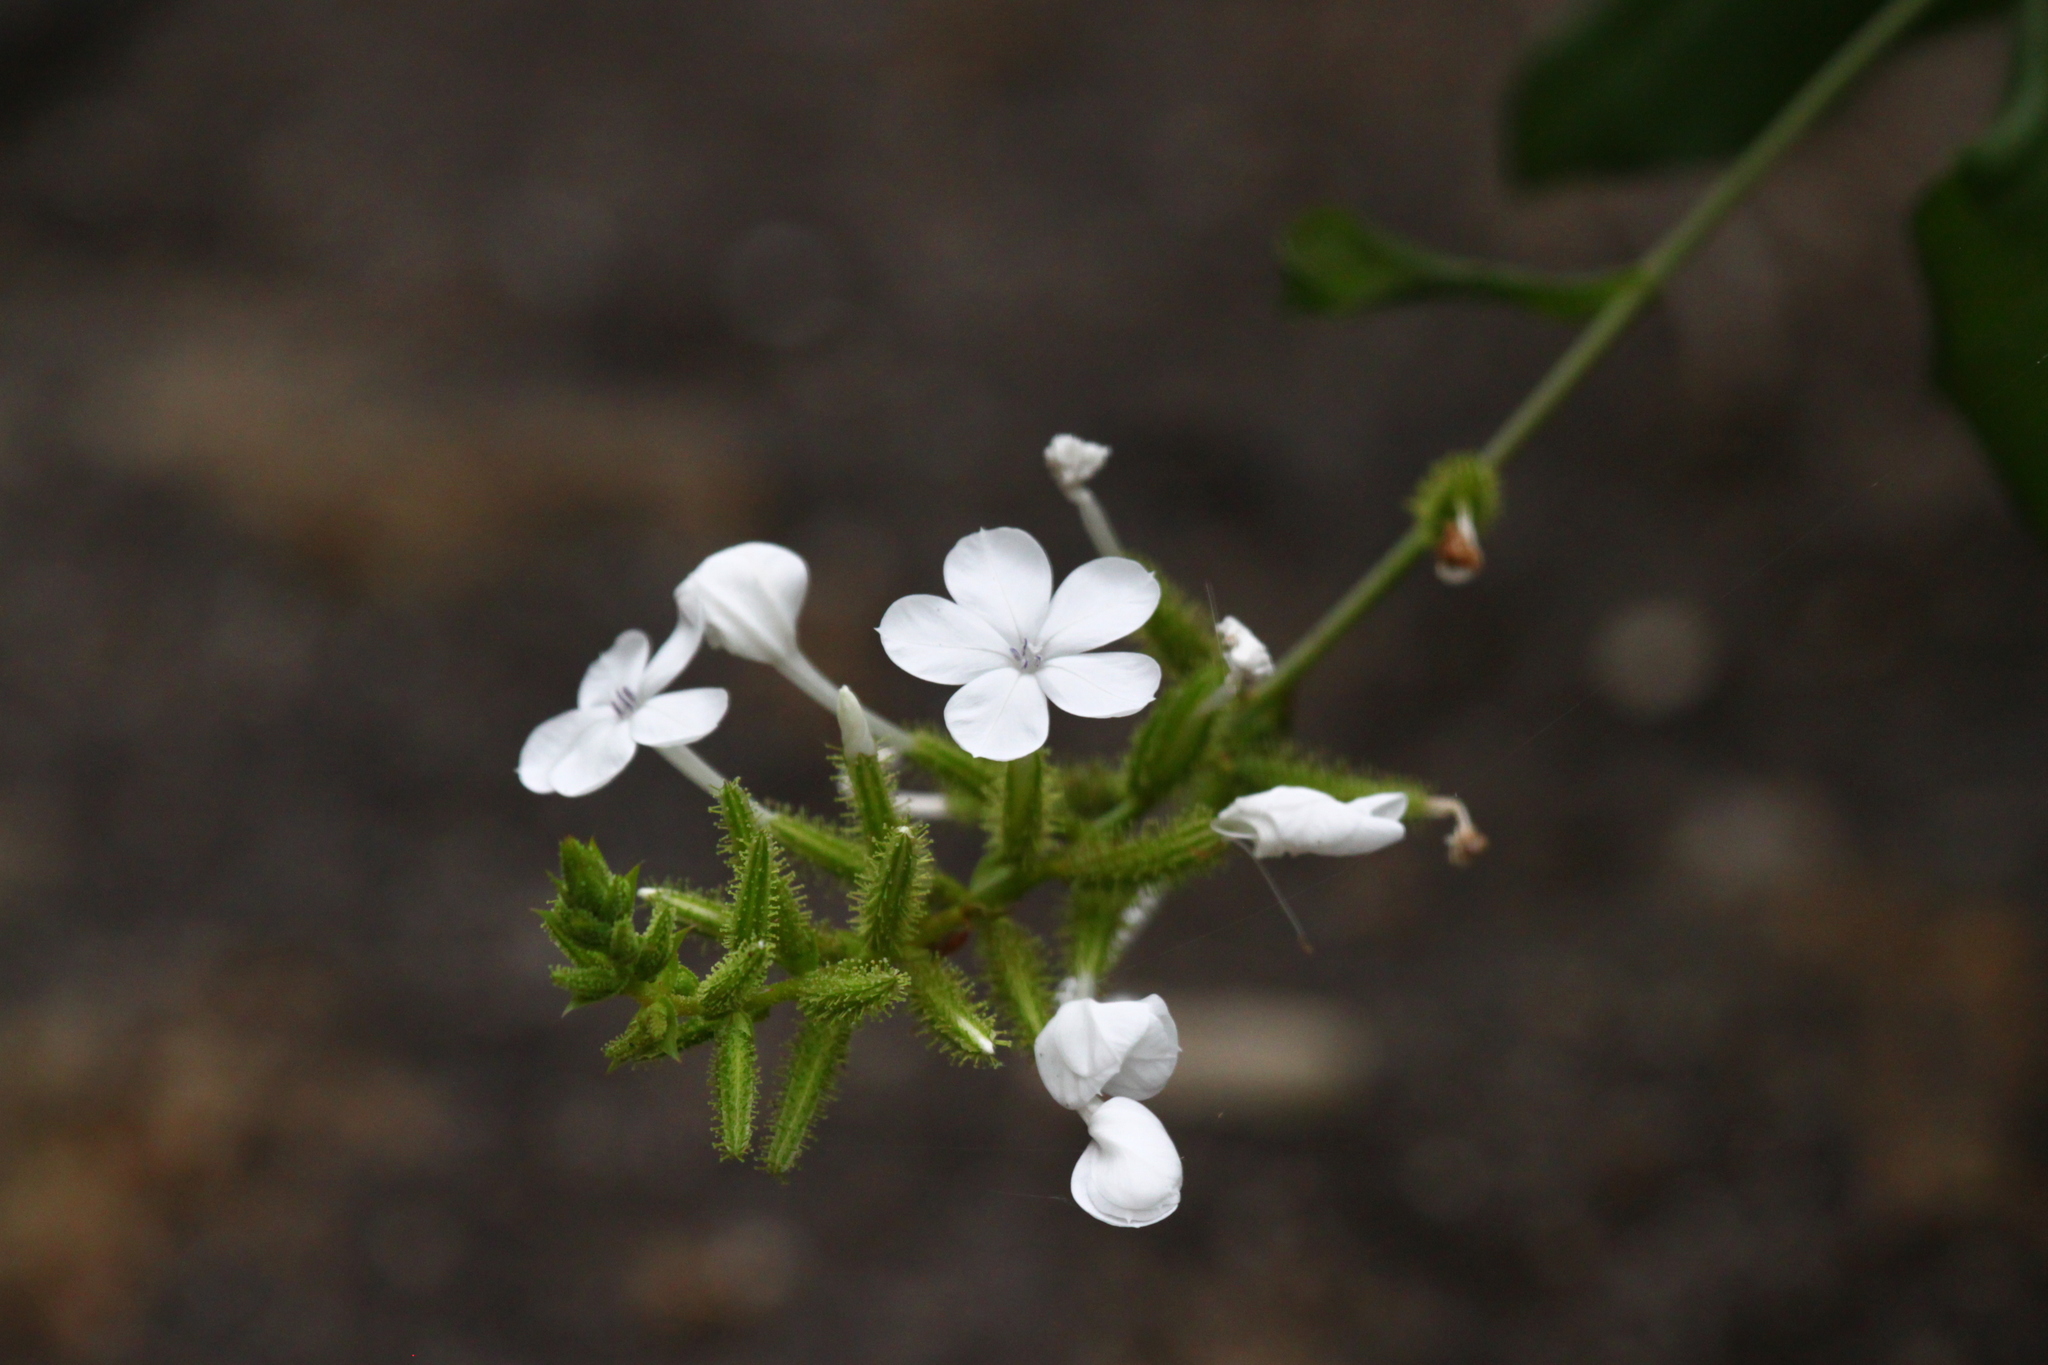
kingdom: Plantae
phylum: Tracheophyta
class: Magnoliopsida
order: Caryophyllales
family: Plumbaginaceae
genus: Plumbago
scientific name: Plumbago zeylanica
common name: Doctorbush
